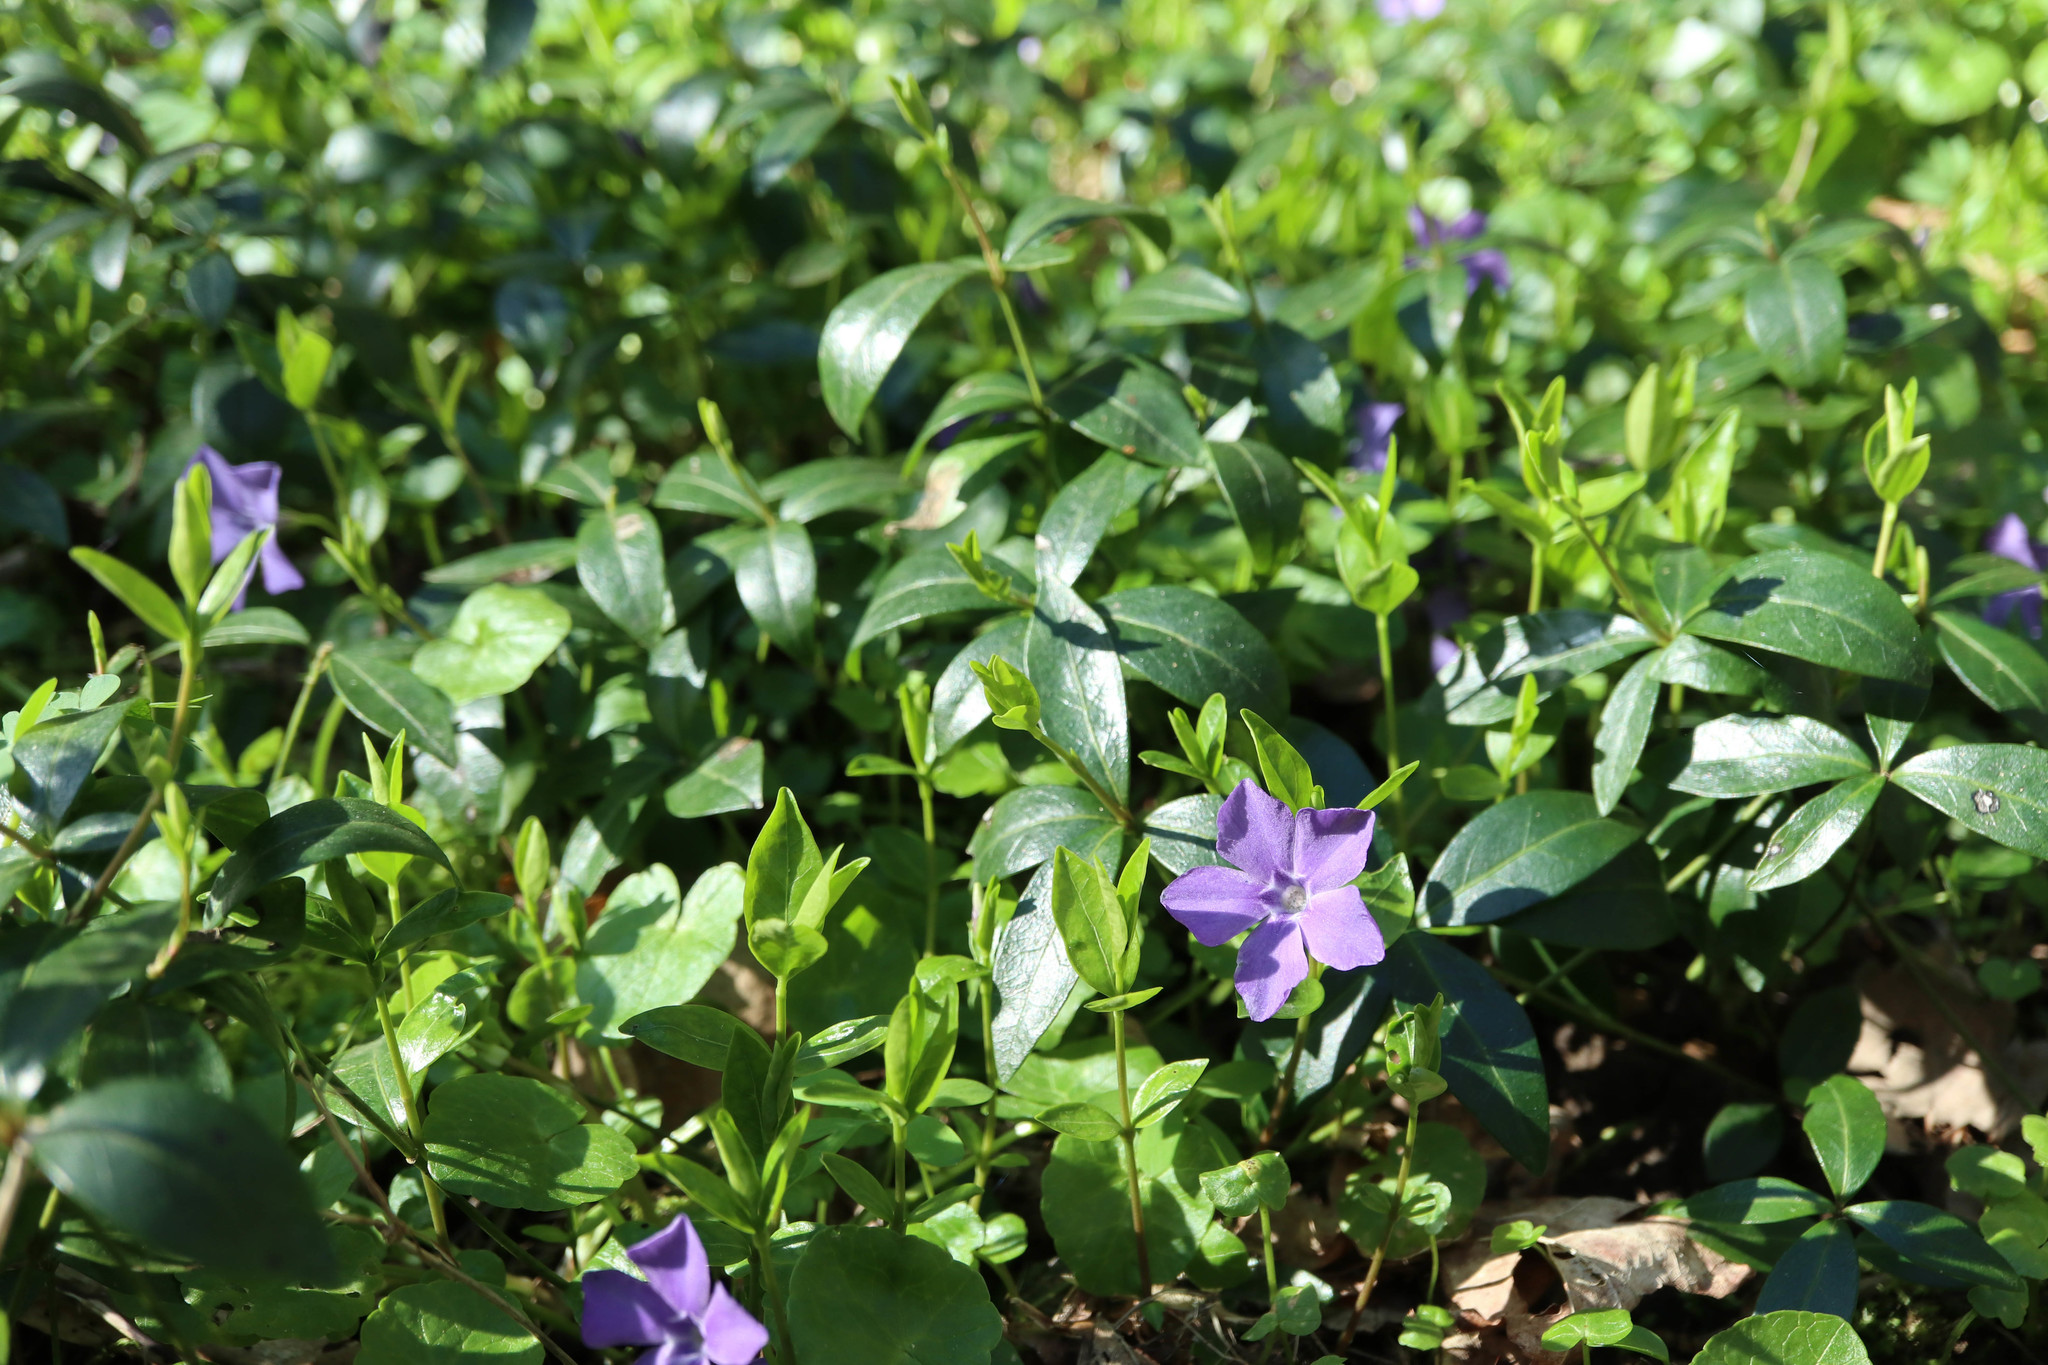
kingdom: Plantae
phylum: Tracheophyta
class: Magnoliopsida
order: Gentianales
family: Apocynaceae
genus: Vinca
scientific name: Vinca minor
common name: Lesser periwinkle
